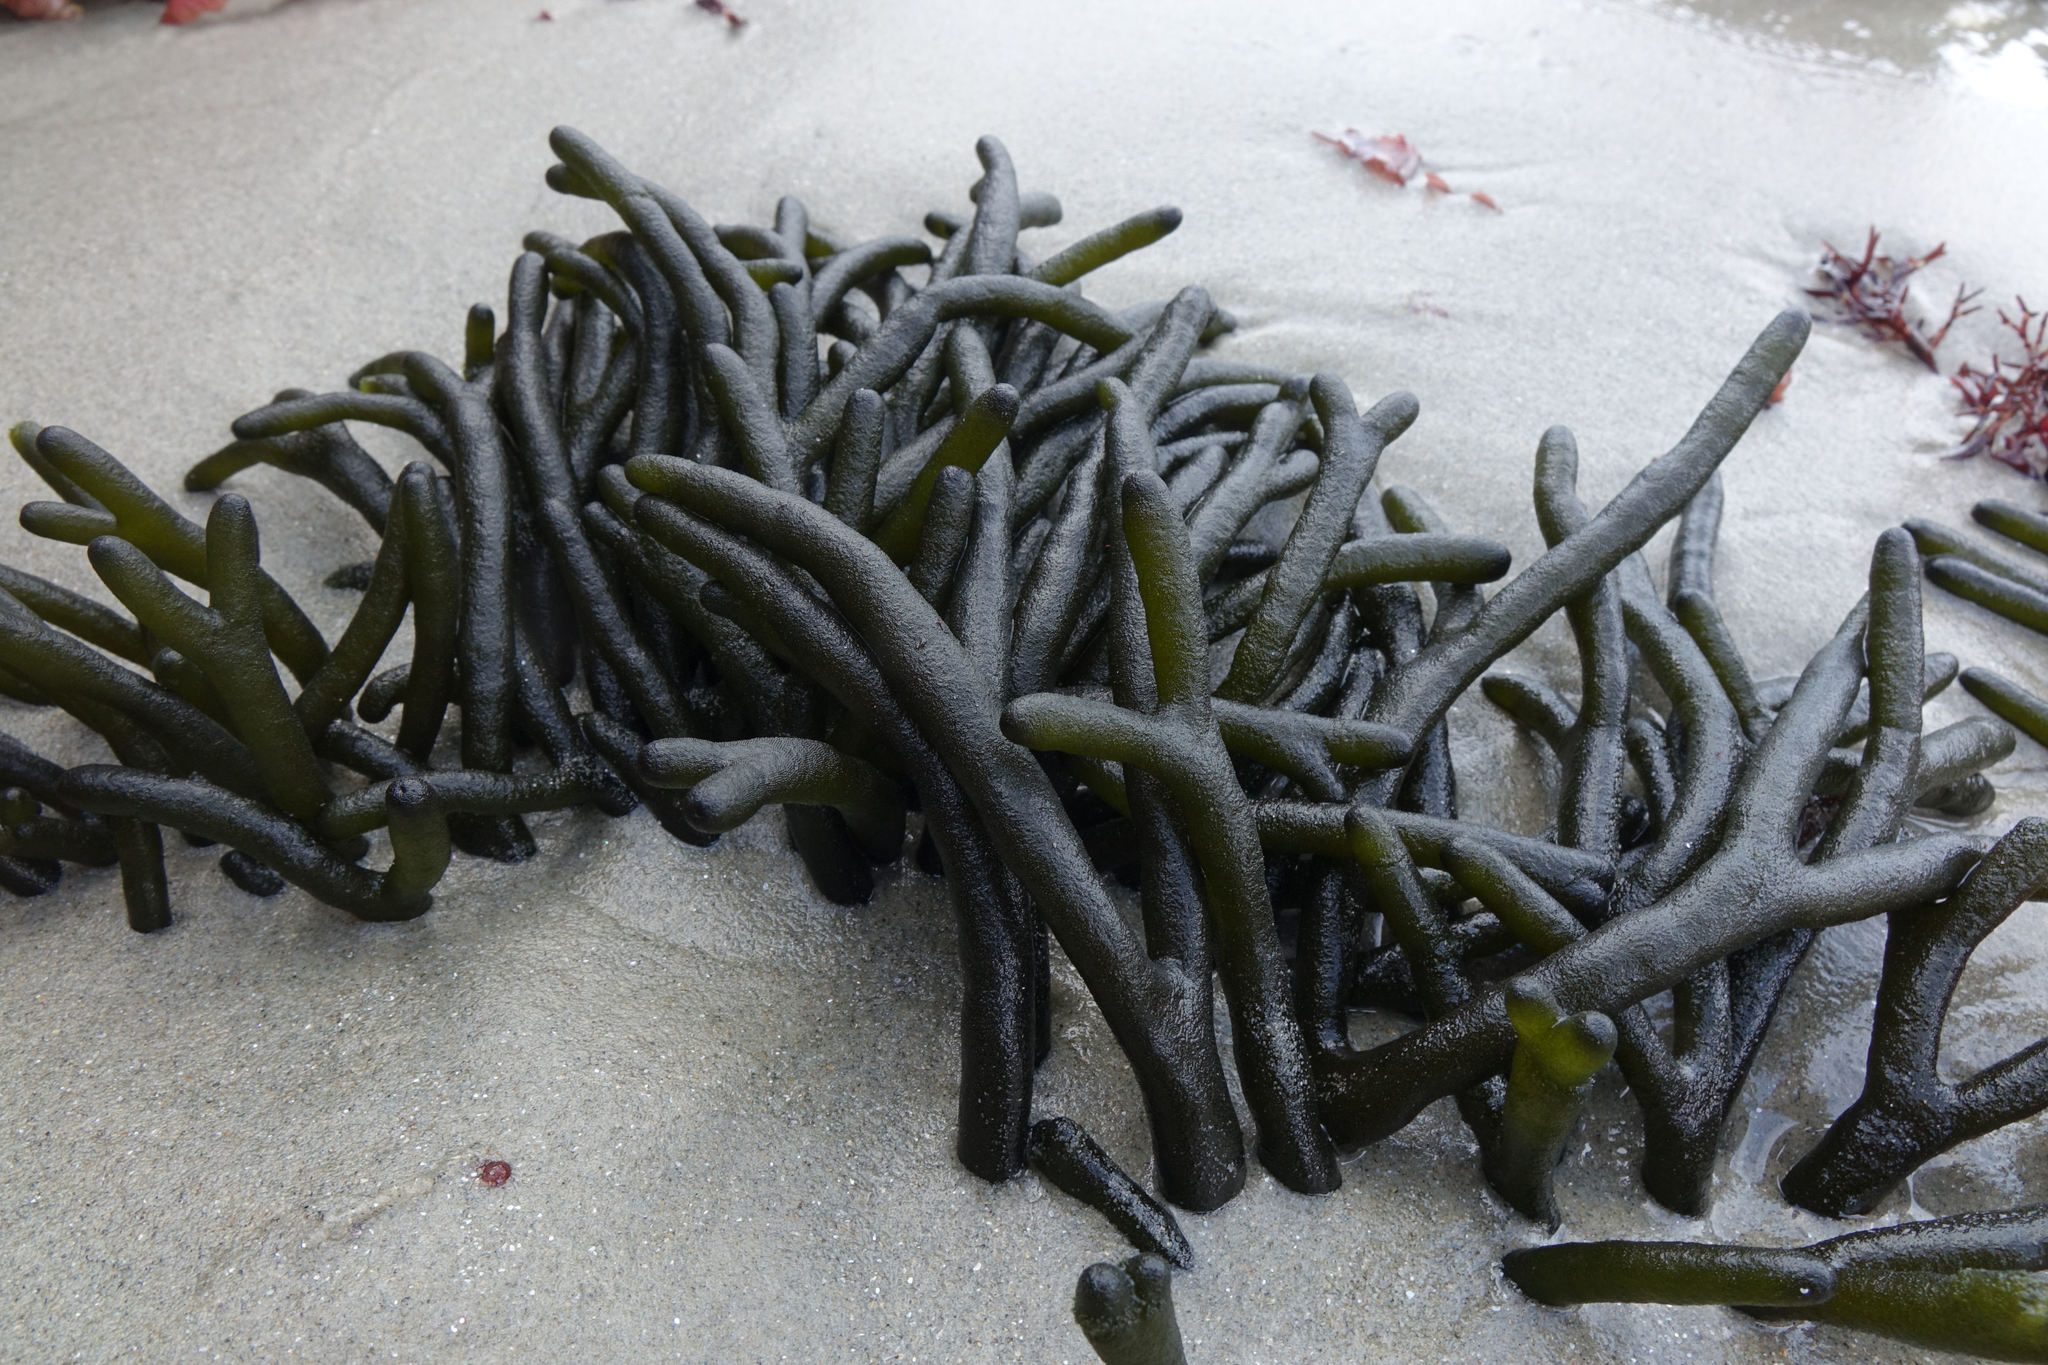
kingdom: Plantae
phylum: Chlorophyta
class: Ulvophyceae
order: Bryopsidales
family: Codiaceae
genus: Codium
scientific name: Codium fragile
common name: Dead man's fingers
